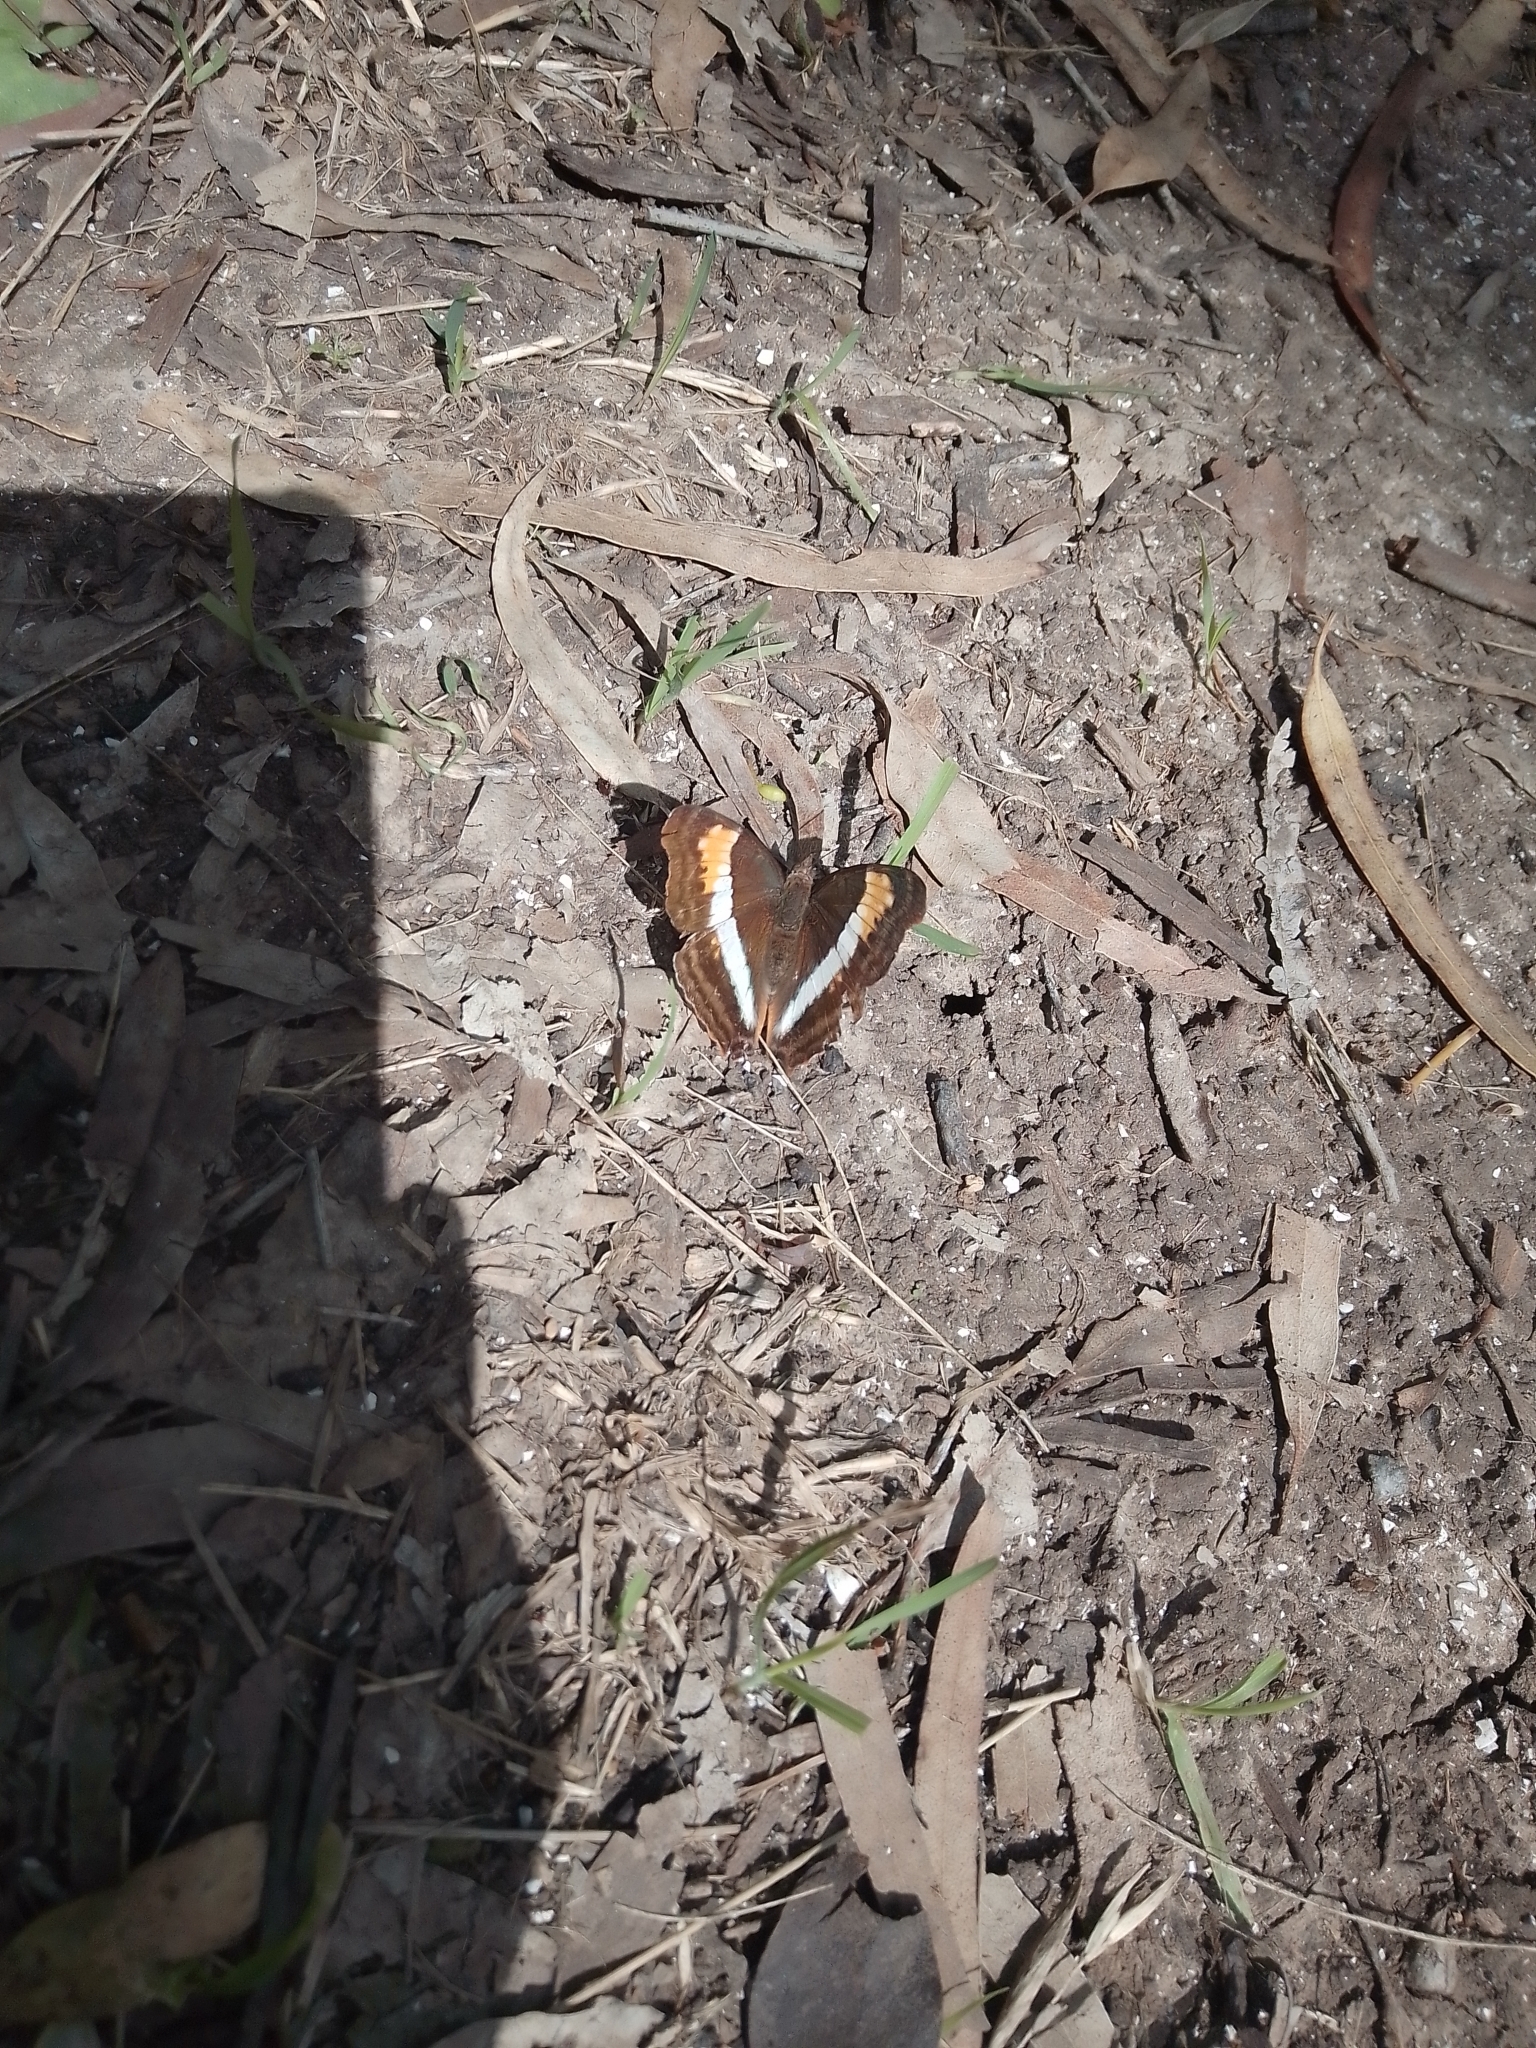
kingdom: Animalia
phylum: Arthropoda
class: Insecta
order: Lepidoptera
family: Nymphalidae
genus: Doxocopa
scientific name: Doxocopa laurentia
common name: Turquoise emperor
